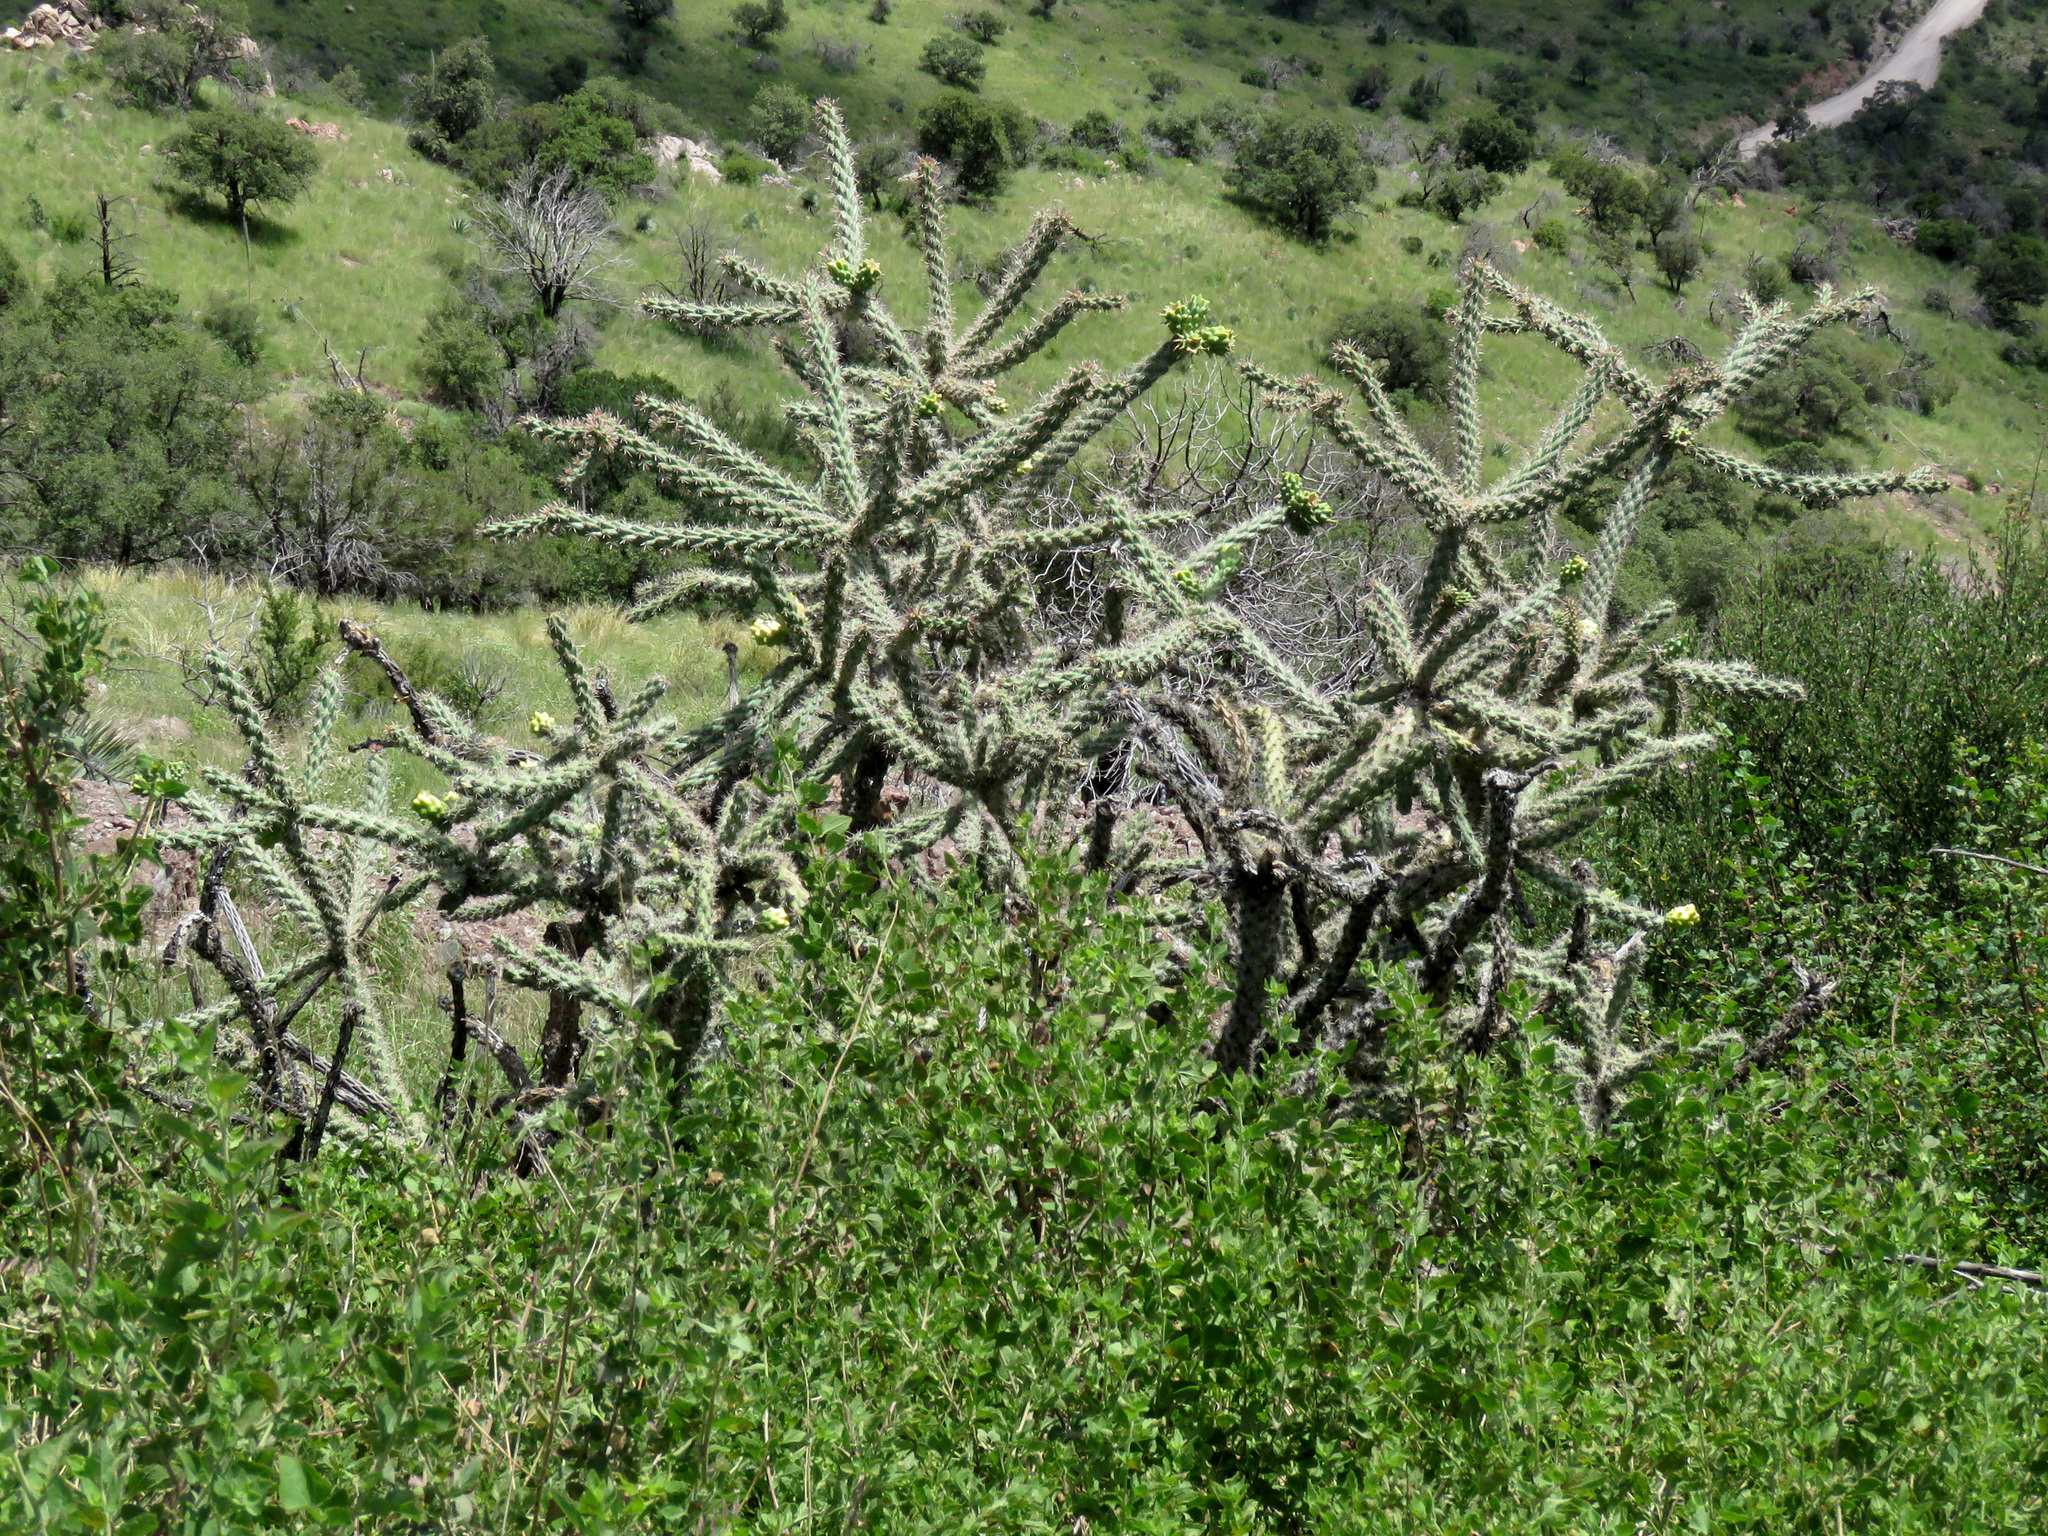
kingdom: Plantae
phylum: Tracheophyta
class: Magnoliopsida
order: Caryophyllales
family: Cactaceae
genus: Cylindropuntia
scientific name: Cylindropuntia imbricata
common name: Candelabrum cactus
